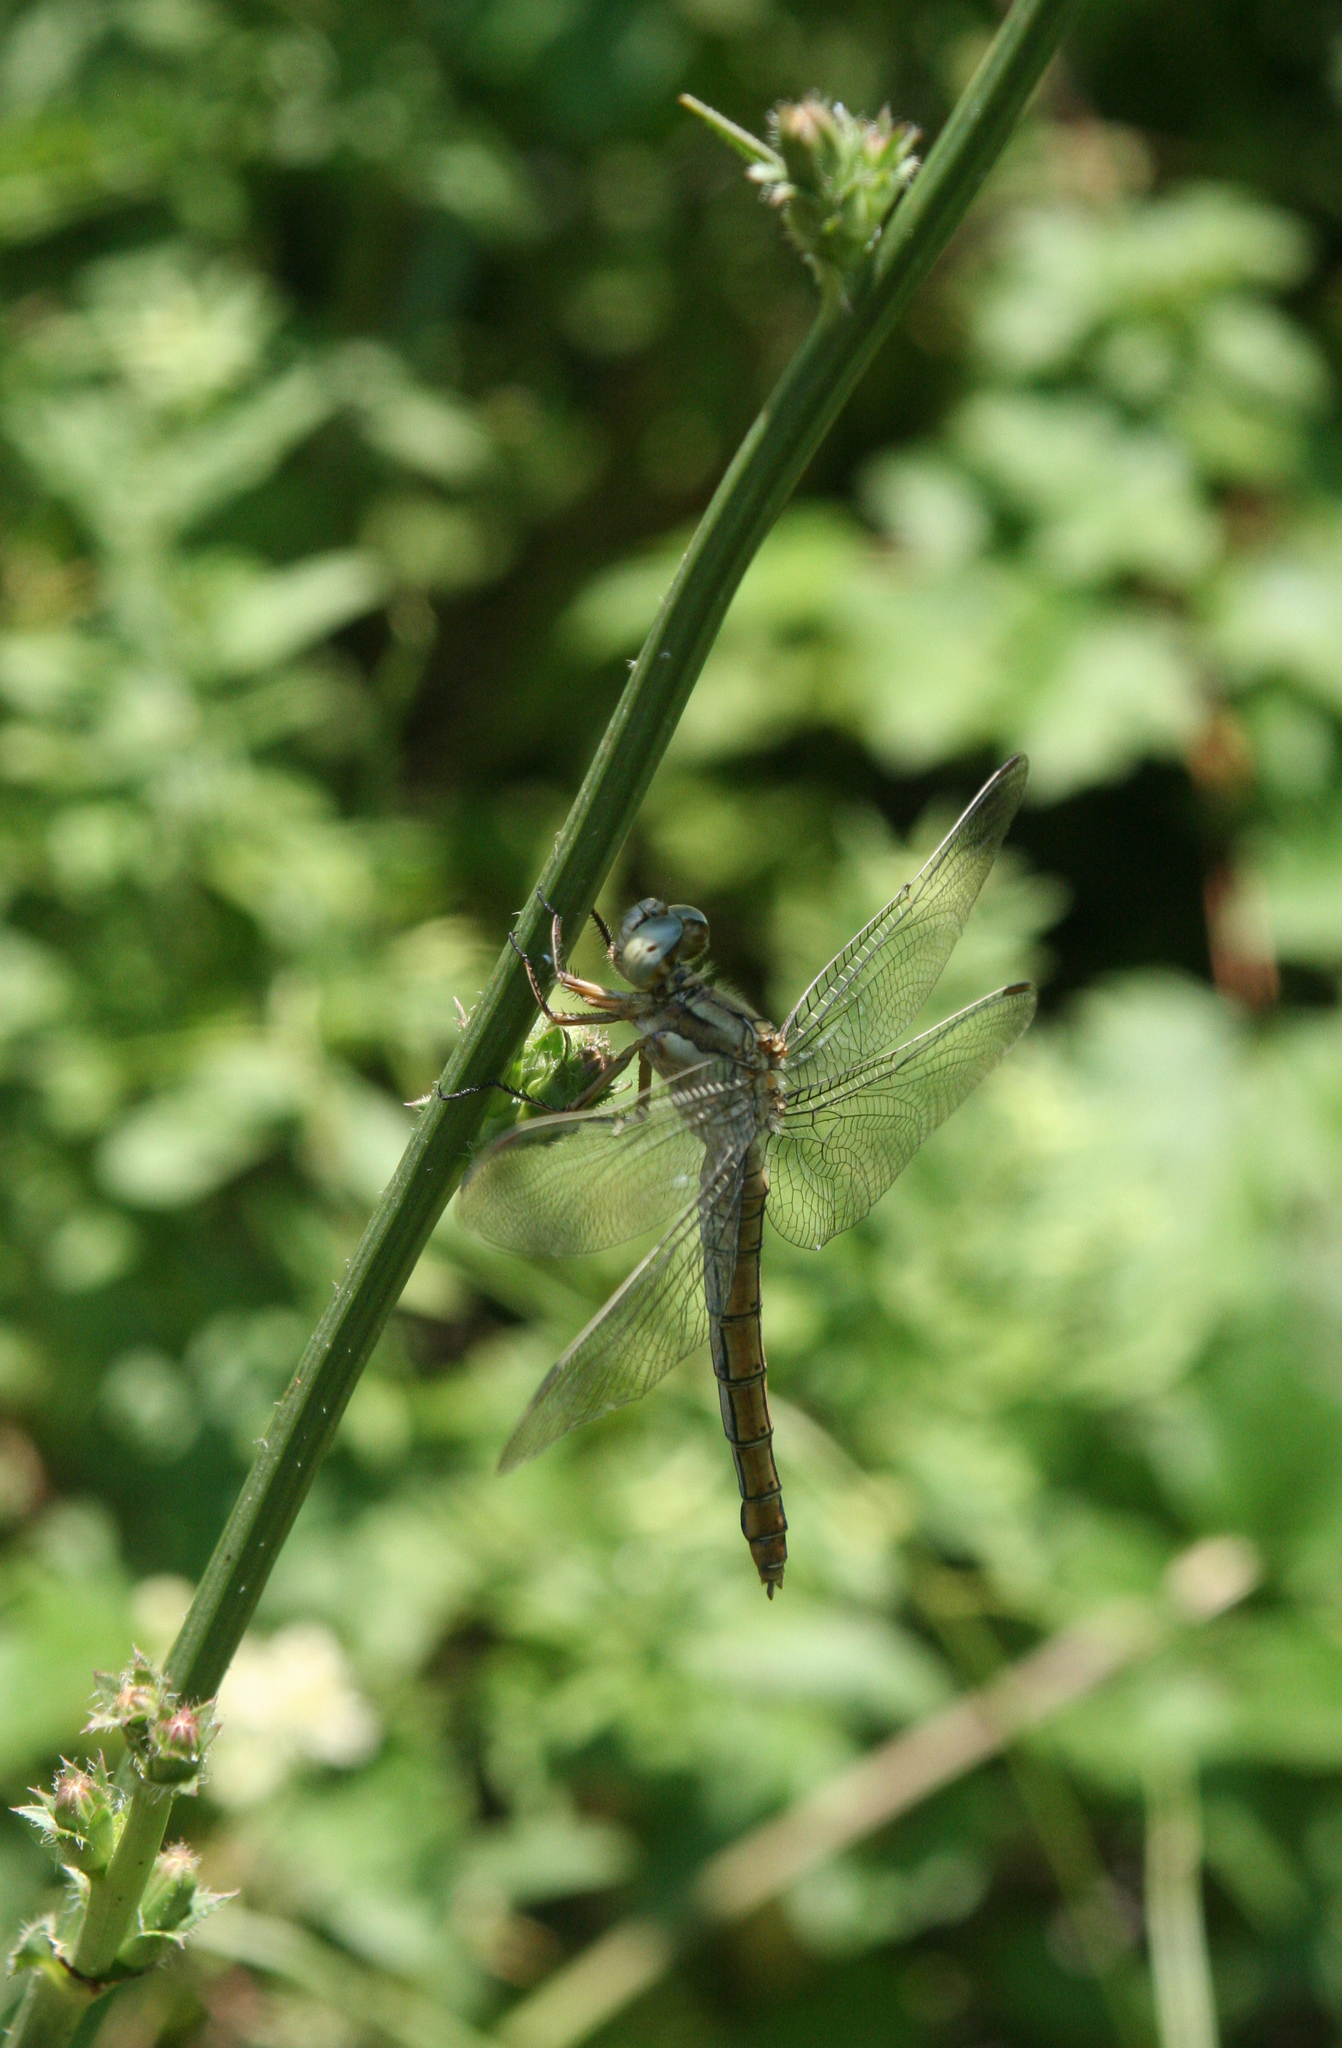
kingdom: Animalia
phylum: Arthropoda
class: Insecta
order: Odonata
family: Libellulidae
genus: Orthetrum
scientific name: Orthetrum brunneum
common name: Southern skimmer
